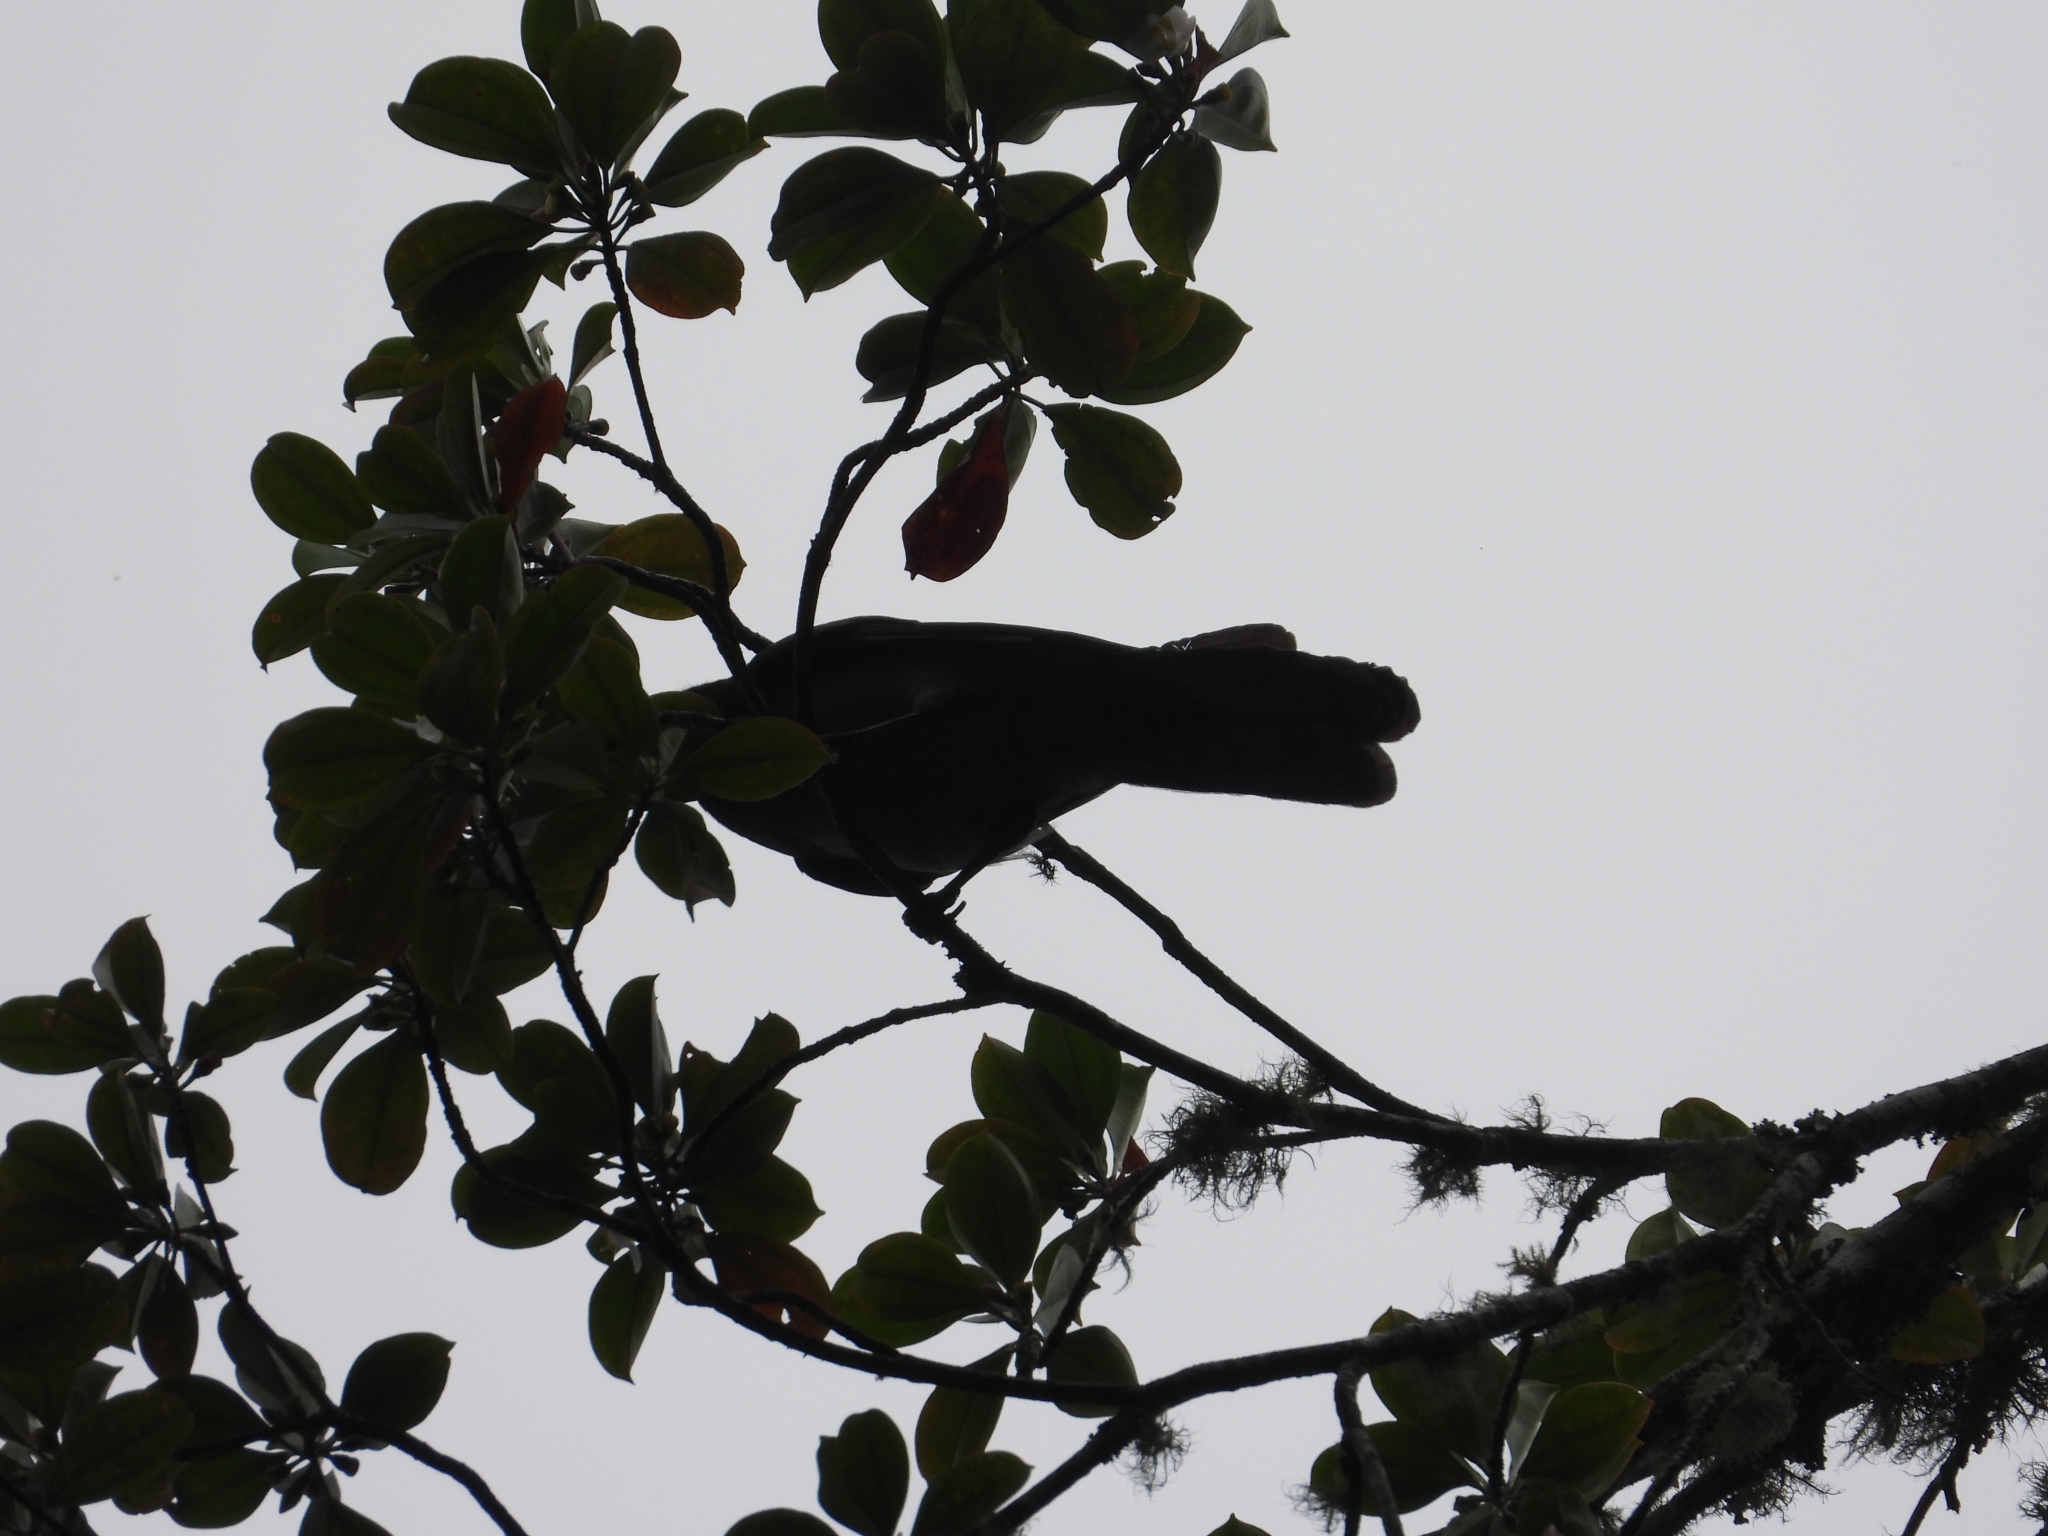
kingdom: Animalia
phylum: Chordata
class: Aves
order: Passeriformes
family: Mimidae
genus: Melanotis
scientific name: Melanotis caerulescens
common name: Blue mockingbird
